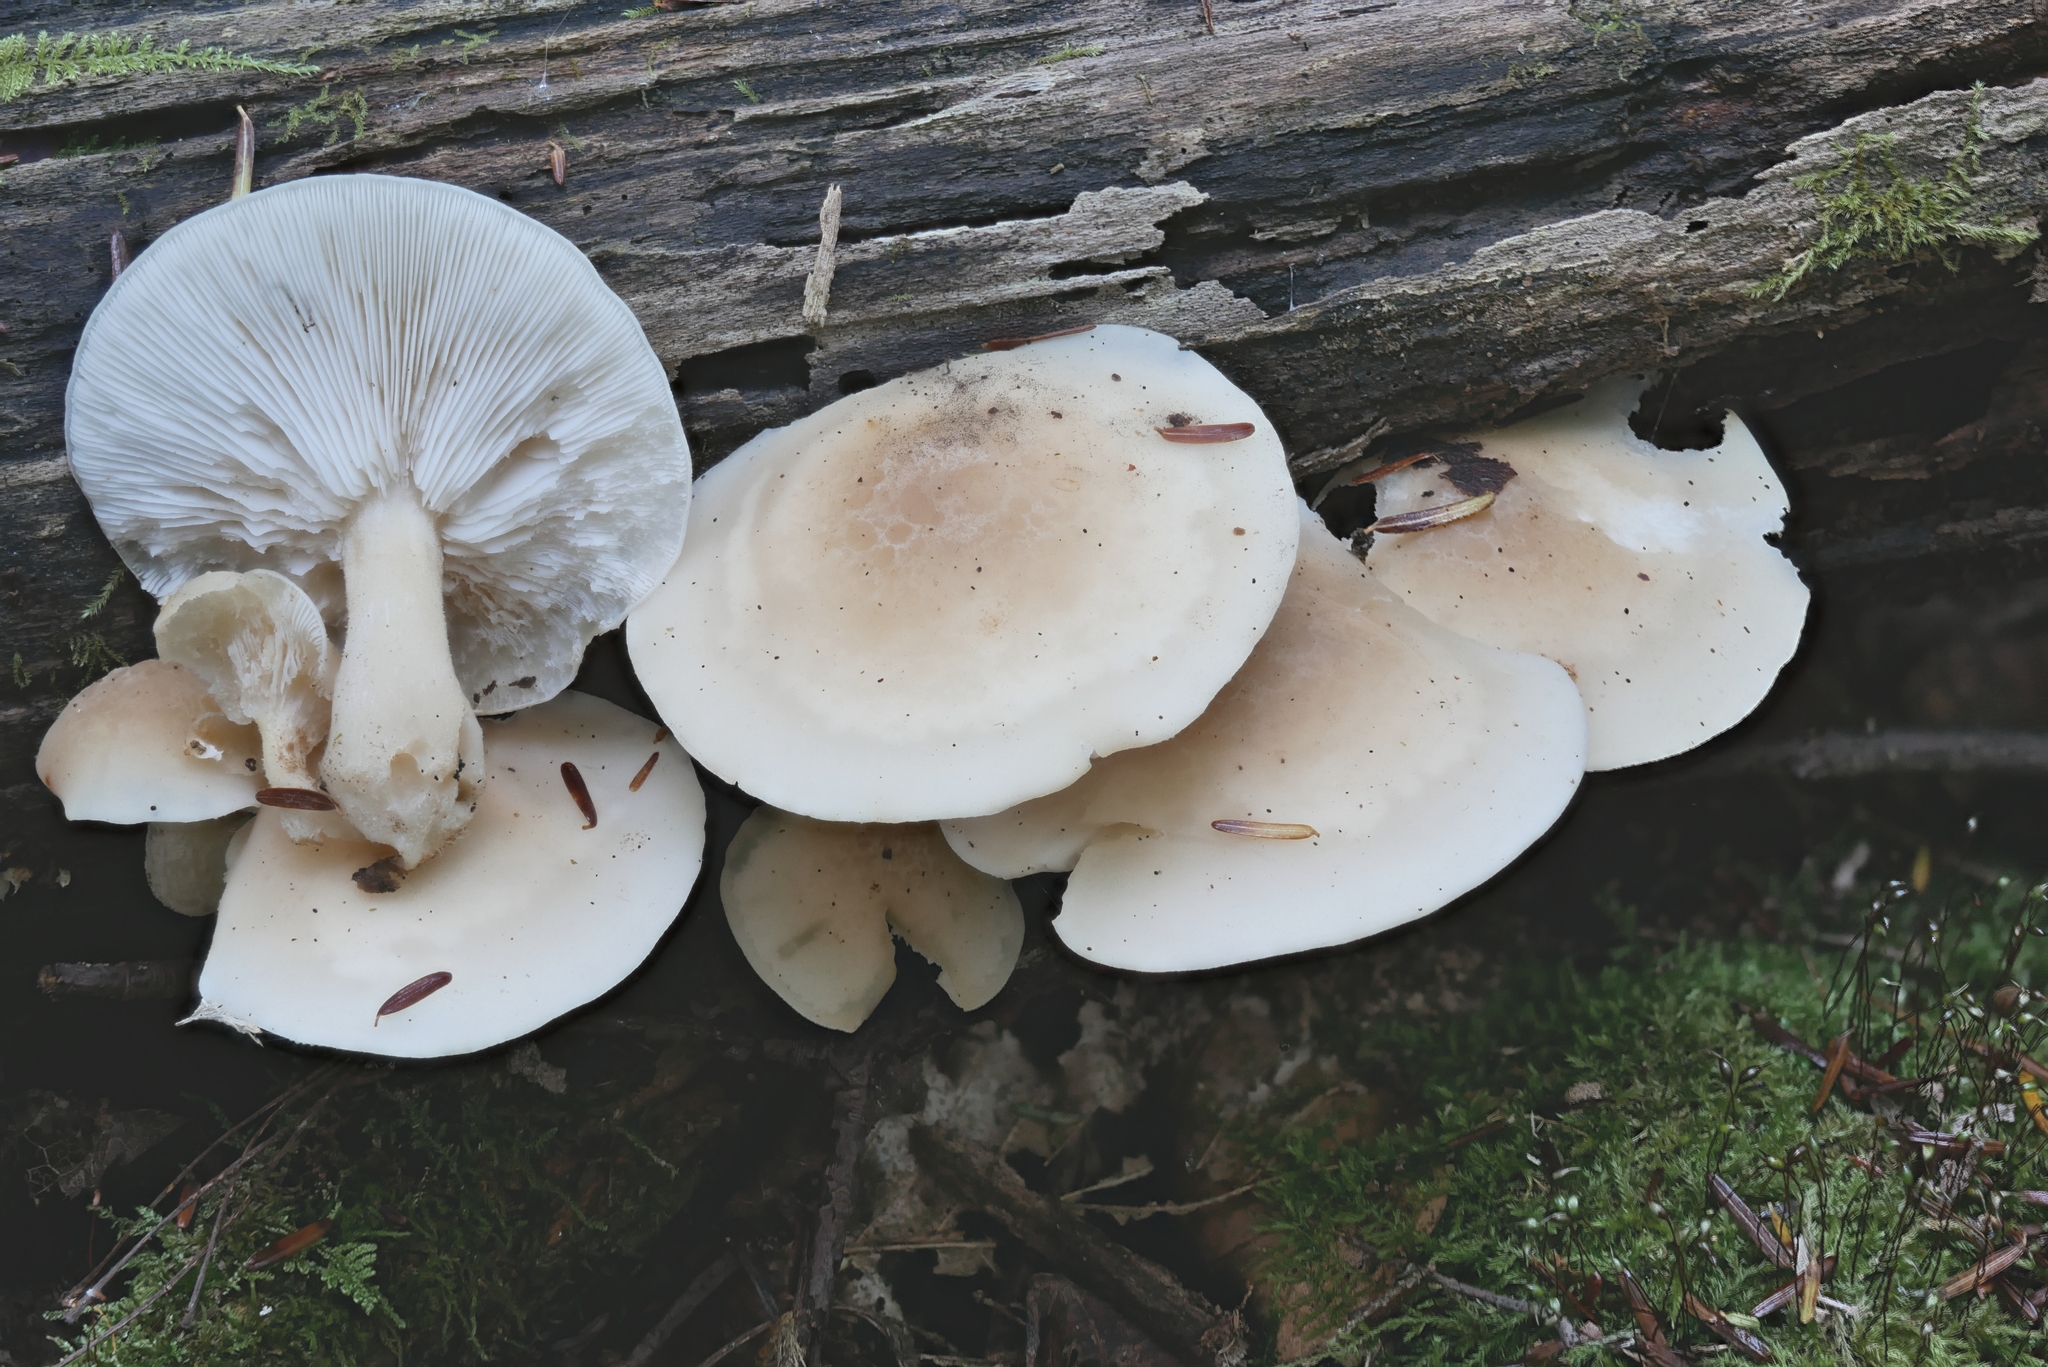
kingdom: Fungi
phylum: Basidiomycota
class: Agaricomycetes
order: Agaricales
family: Lyophyllaceae
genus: Hypsizygus
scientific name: Hypsizygus marmoreus
